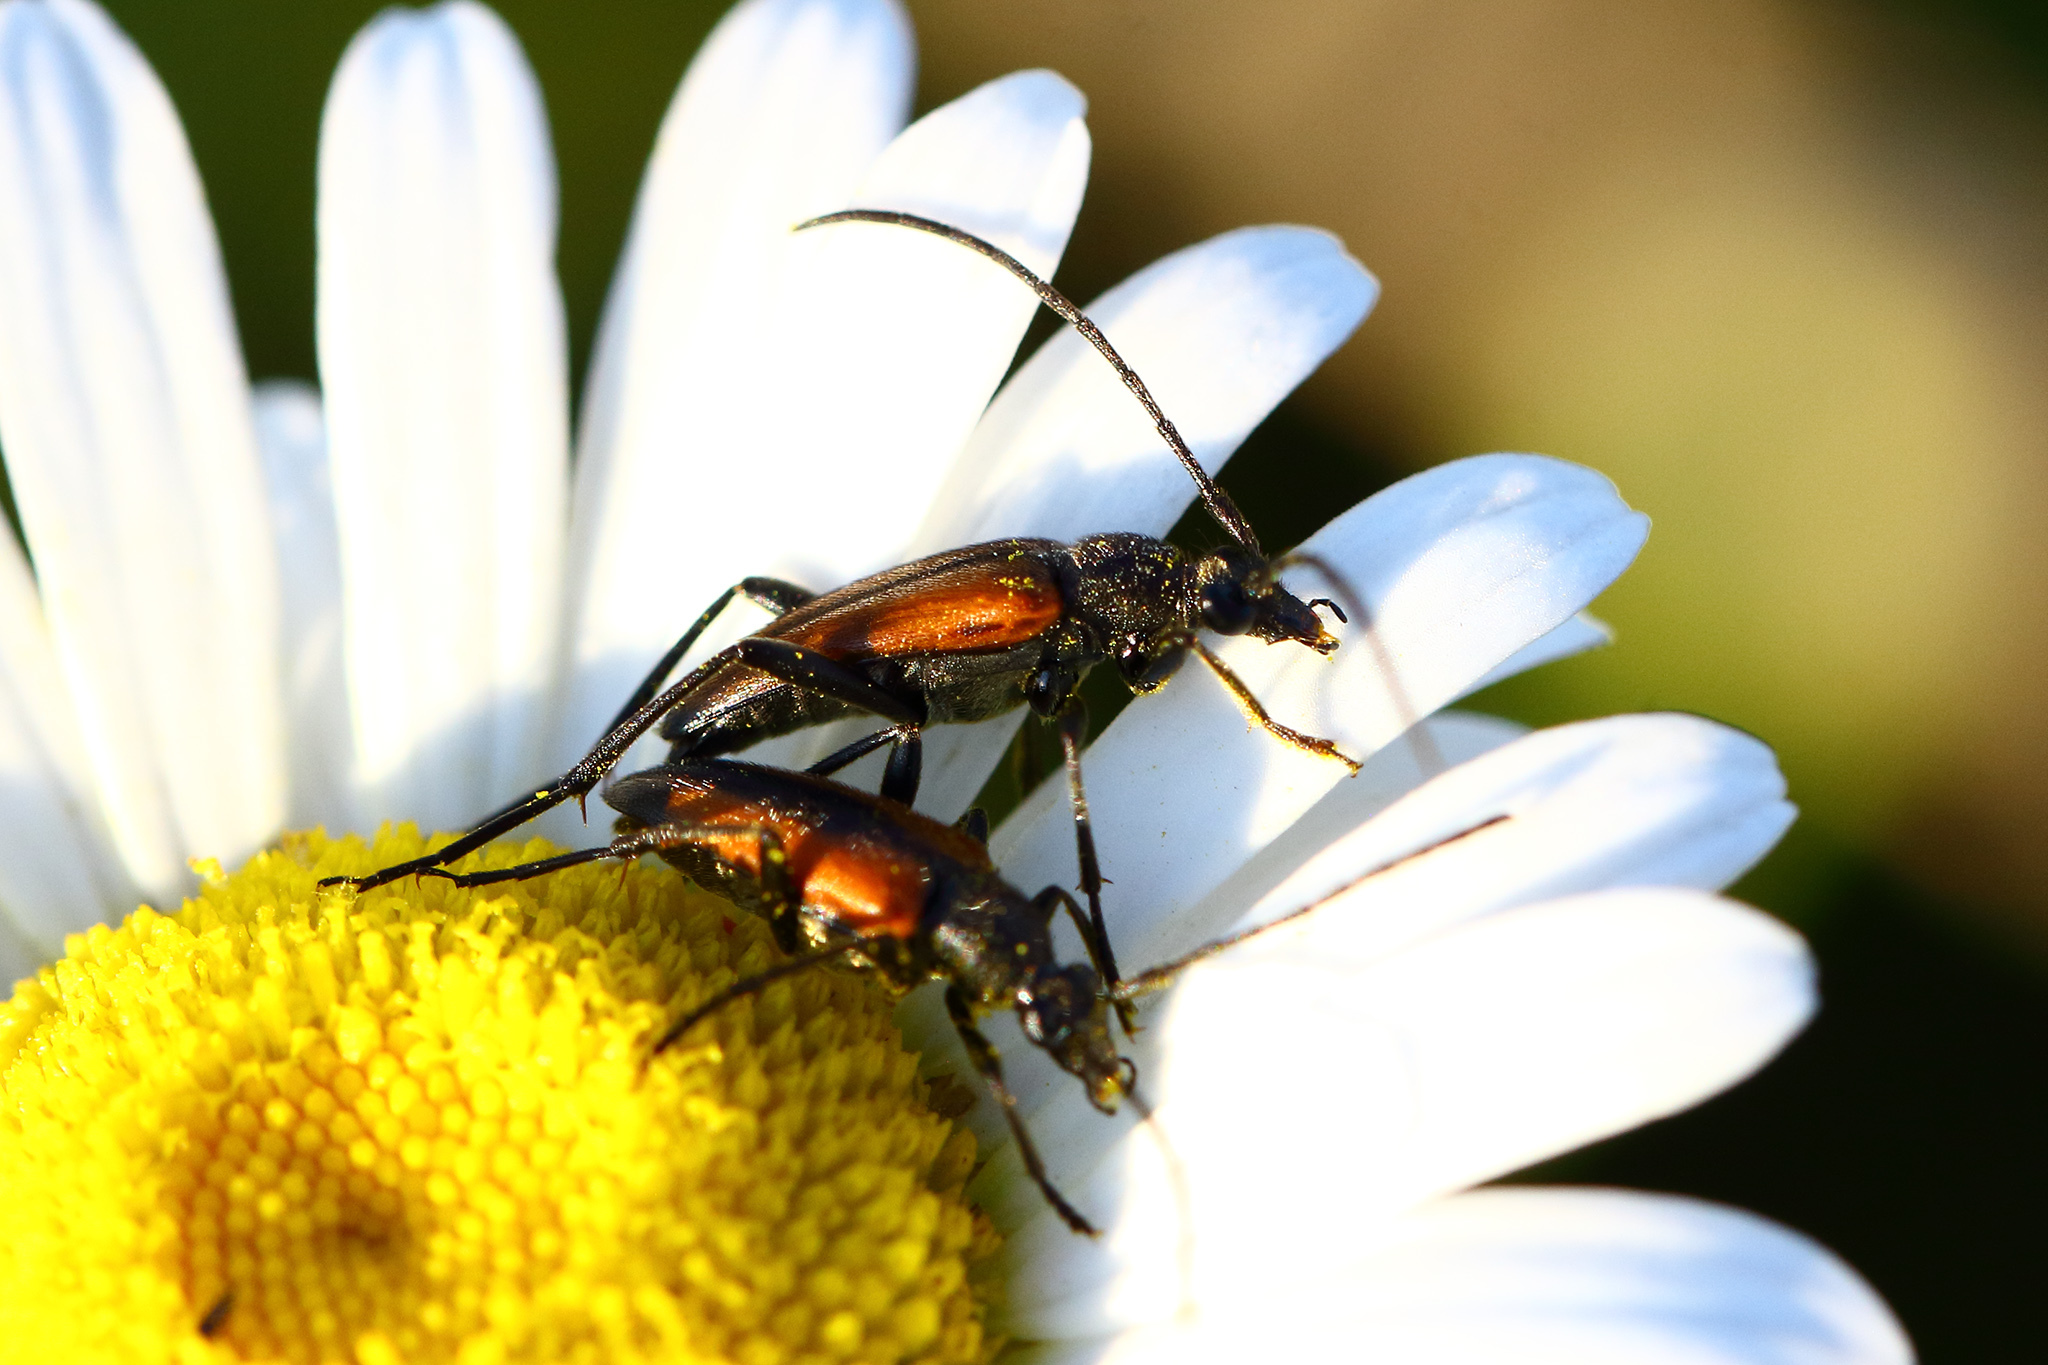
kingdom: Animalia
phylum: Arthropoda
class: Insecta
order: Coleoptera
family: Cerambycidae
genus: Stenurella
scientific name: Stenurella melanura
